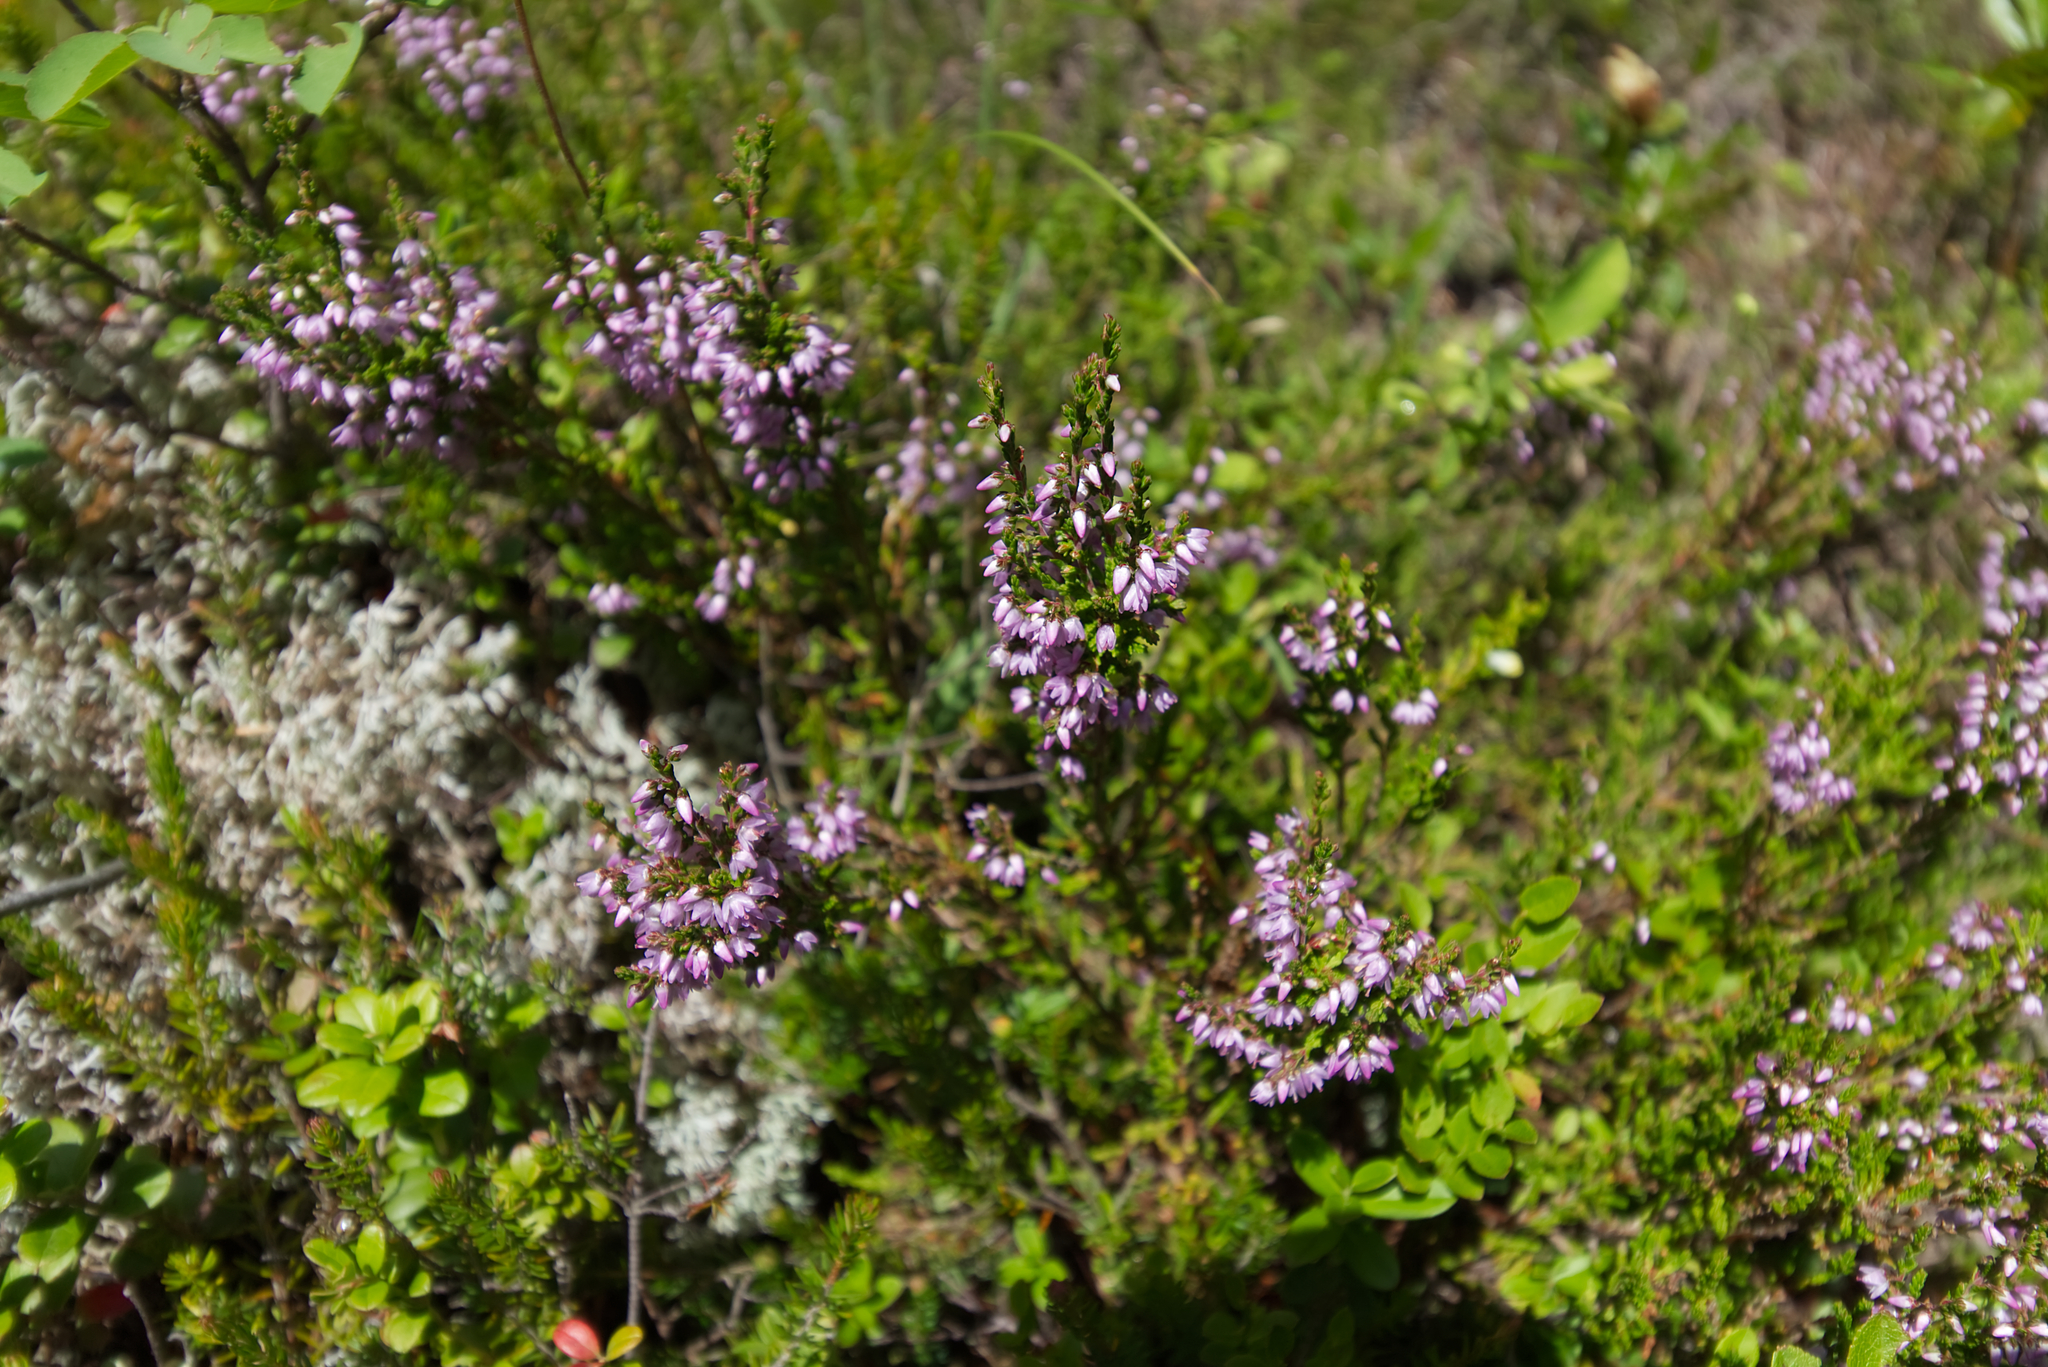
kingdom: Plantae
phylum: Tracheophyta
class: Magnoliopsida
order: Ericales
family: Ericaceae
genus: Calluna
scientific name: Calluna vulgaris
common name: Heather
